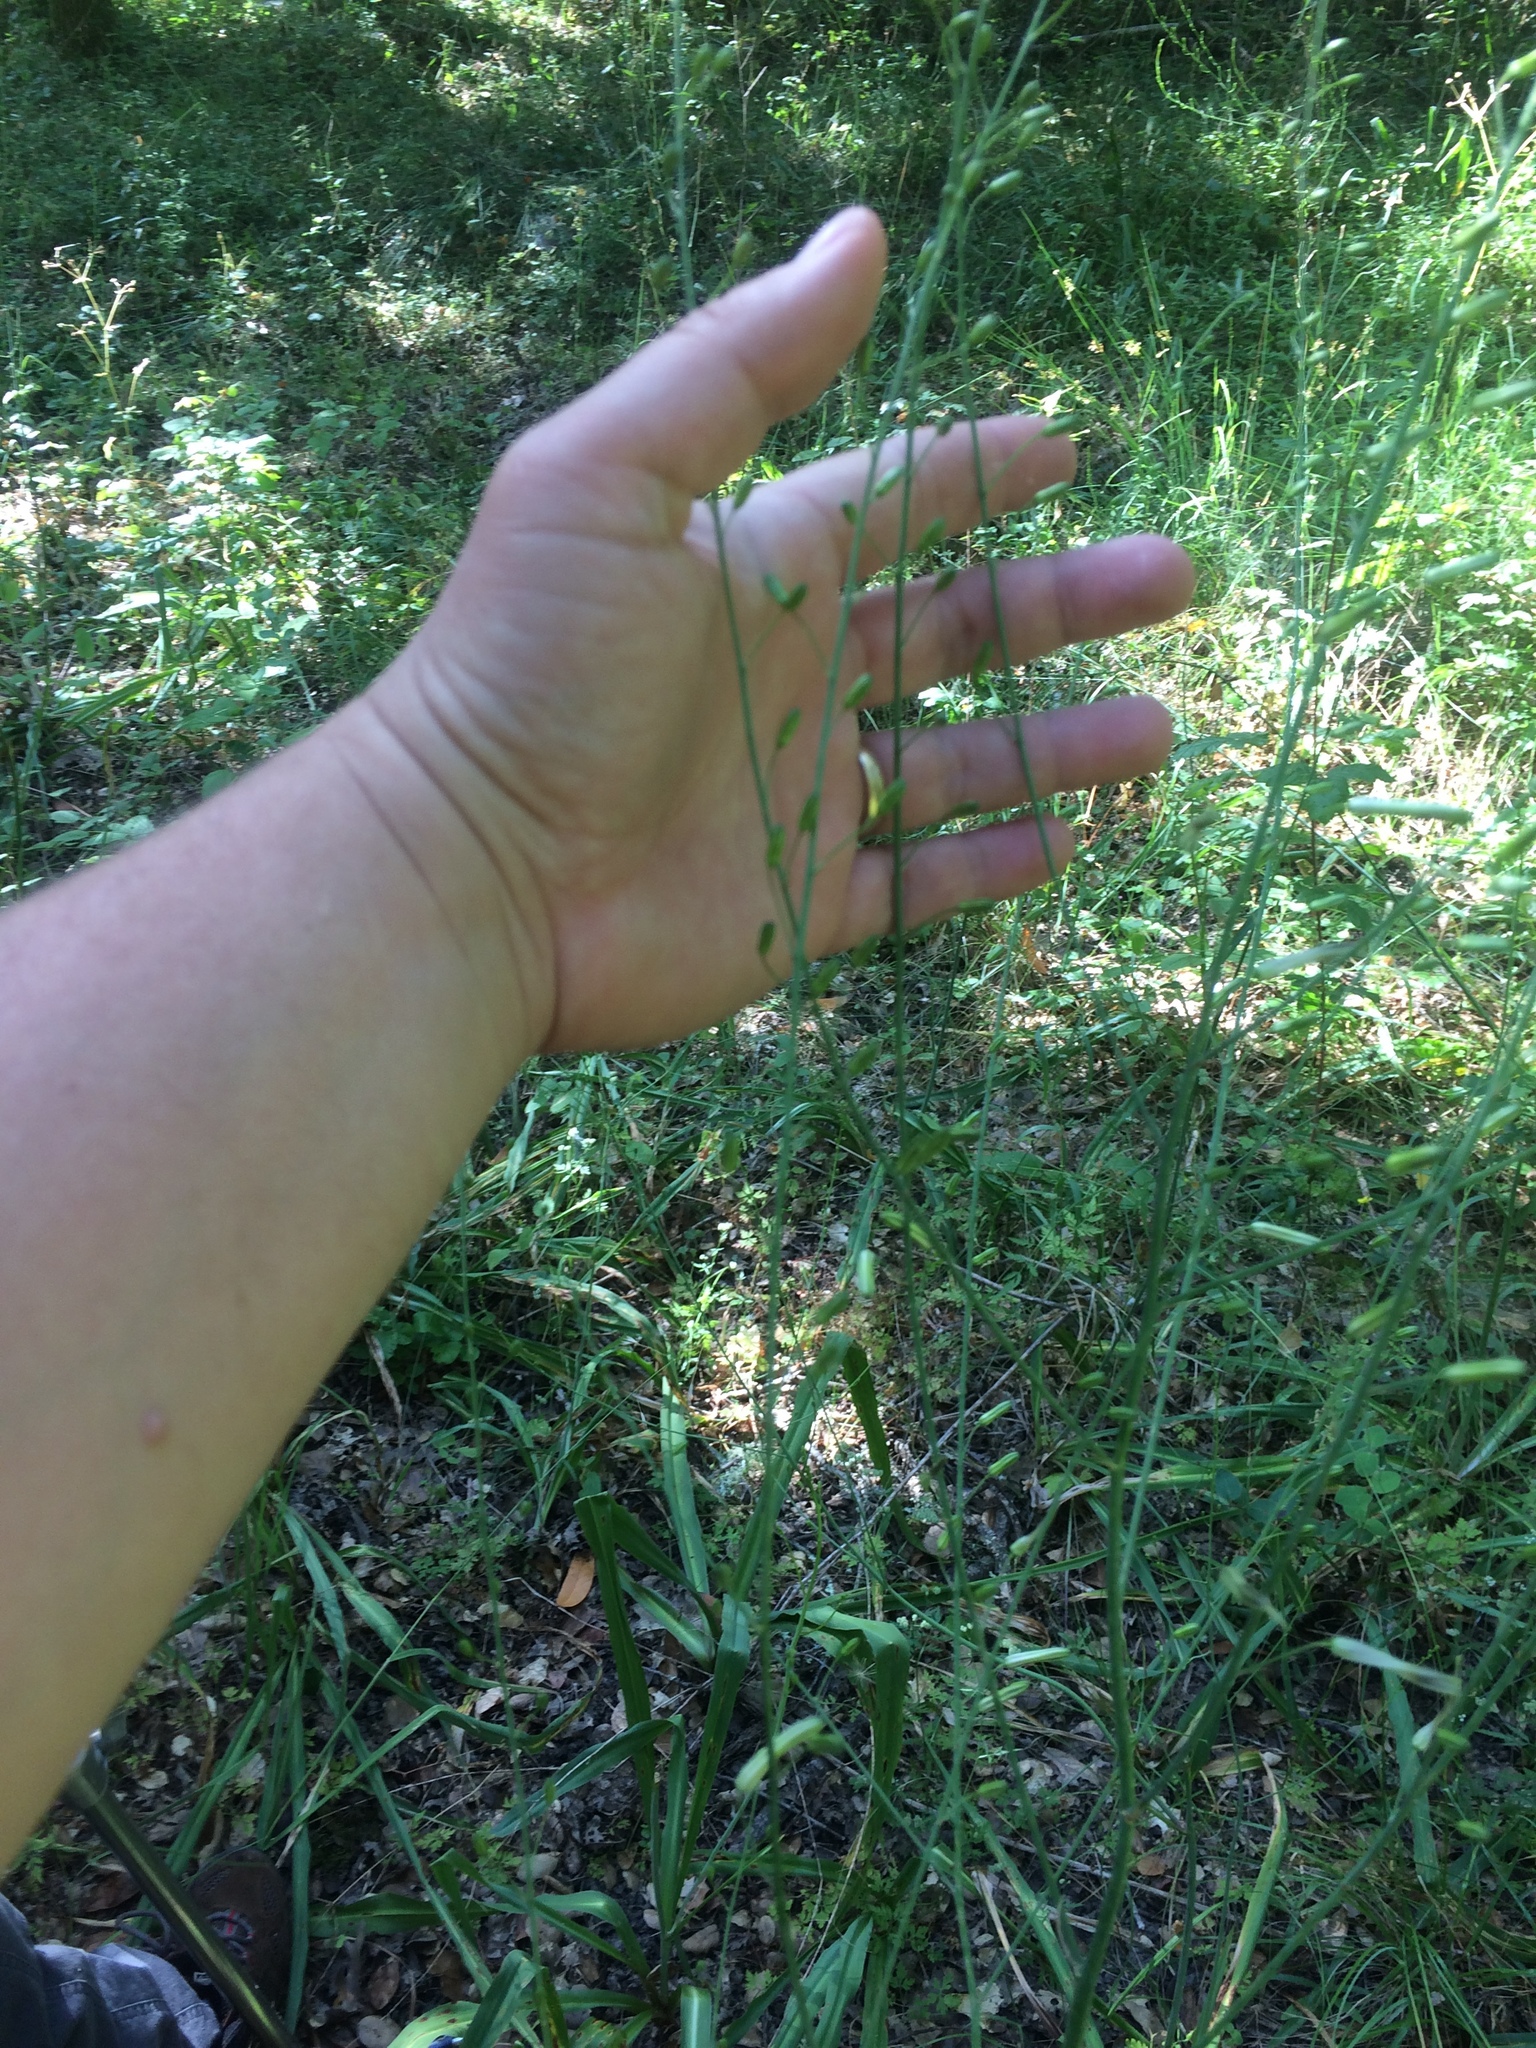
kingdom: Plantae
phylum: Tracheophyta
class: Liliopsida
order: Asparagales
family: Asparagaceae
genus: Chlorogalum
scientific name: Chlorogalum pomeridianum
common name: Amole
